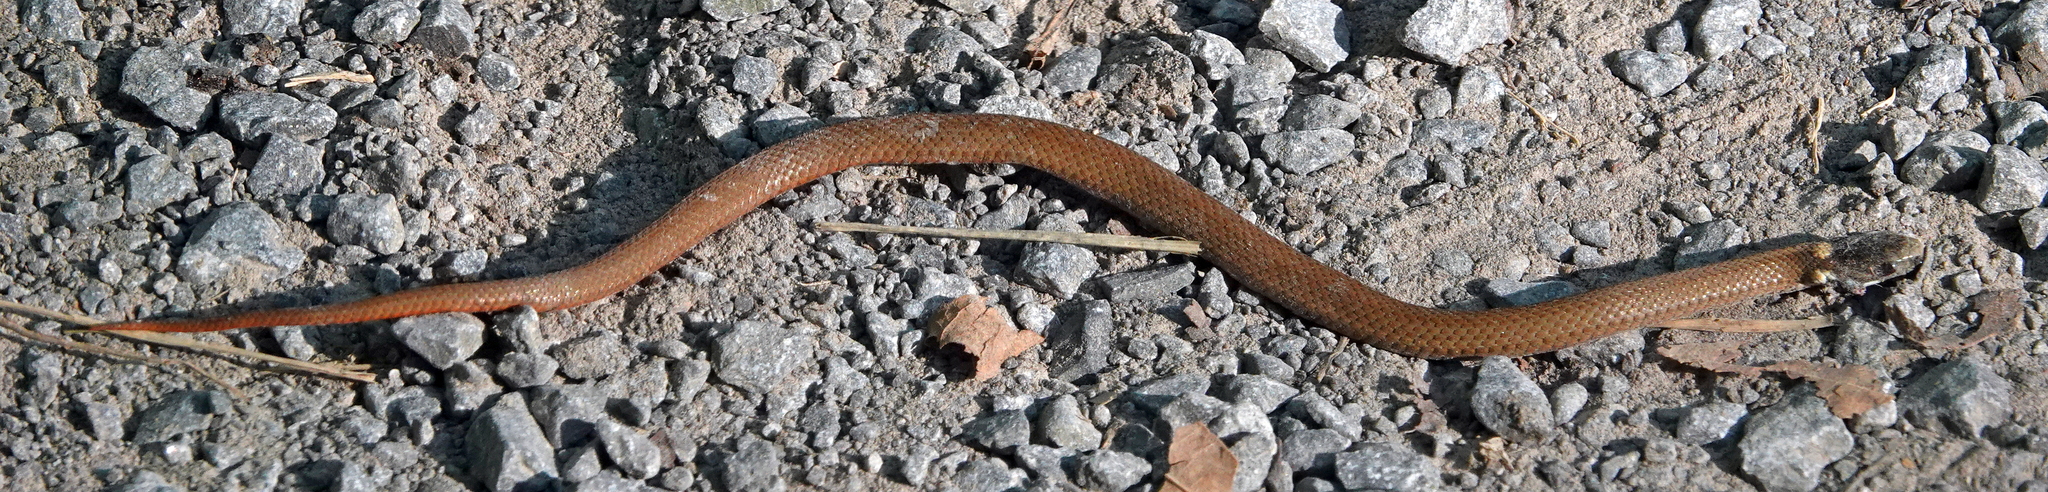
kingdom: Animalia
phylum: Chordata
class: Squamata
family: Colubridae
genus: Storeria
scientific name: Storeria occipitomaculata
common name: Redbelly snake
